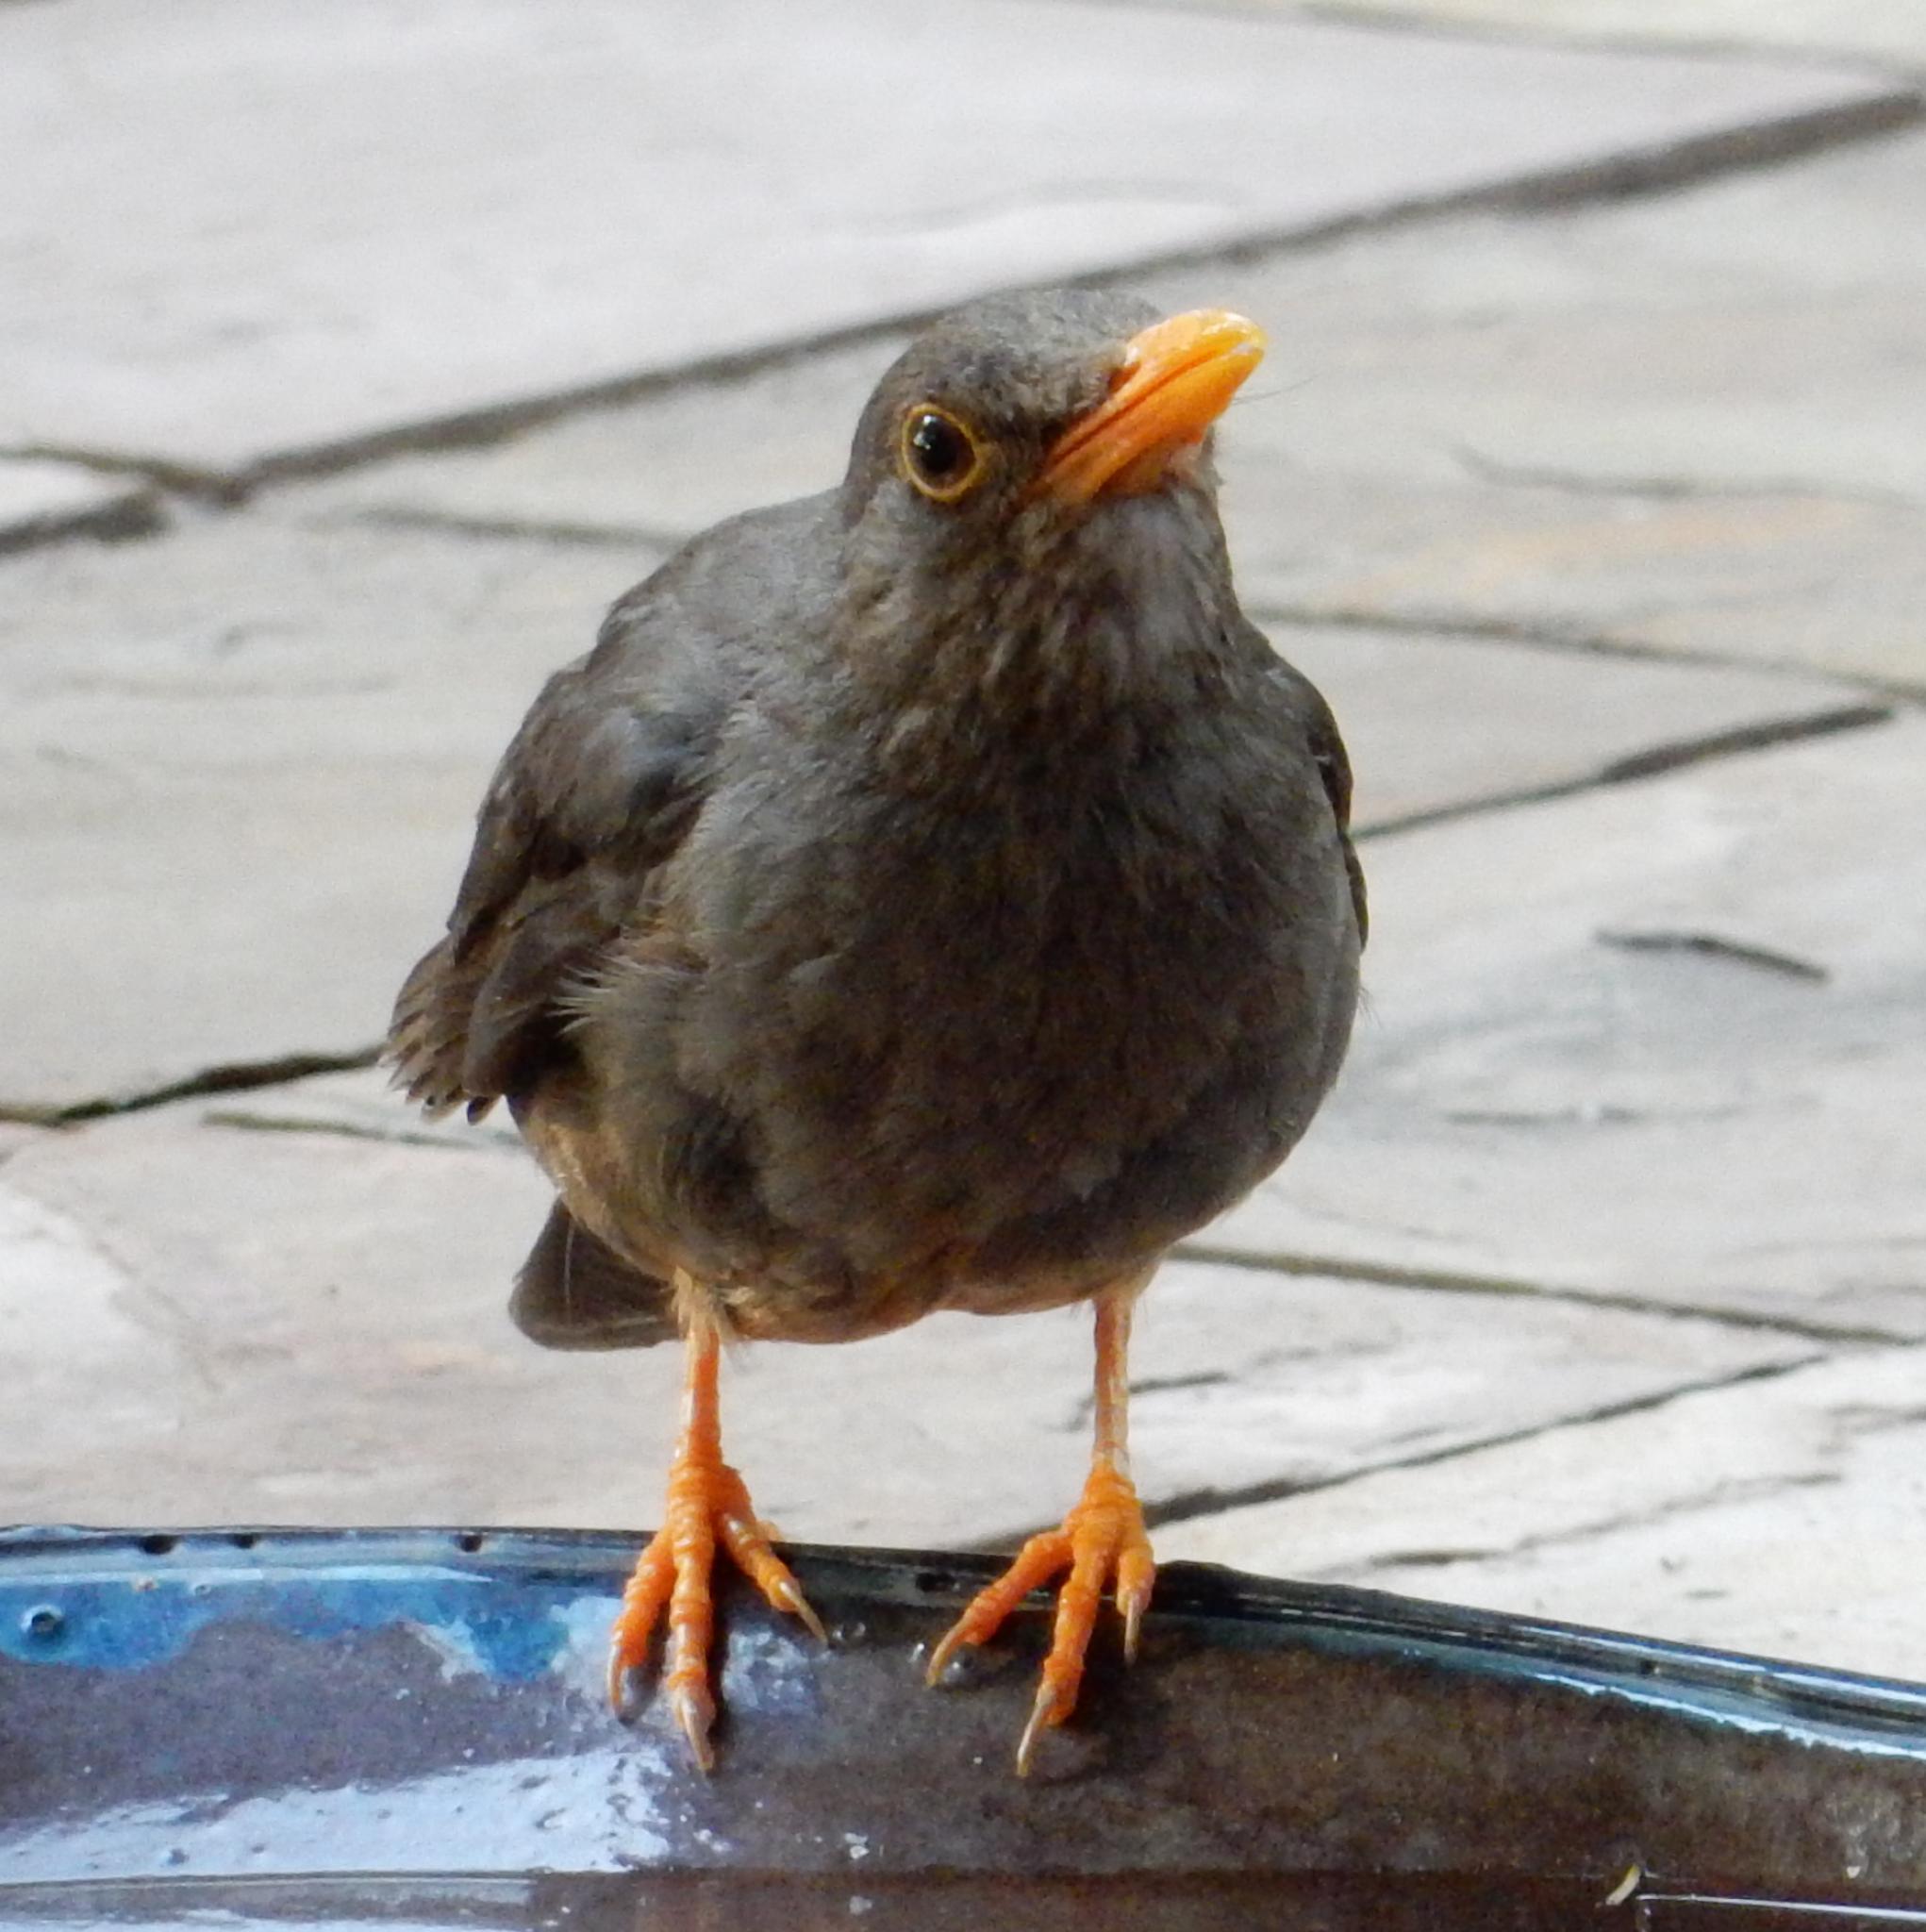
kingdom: Animalia
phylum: Chordata
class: Aves
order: Passeriformes
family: Turdidae
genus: Turdus
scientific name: Turdus smithi
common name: Karoo thrush
